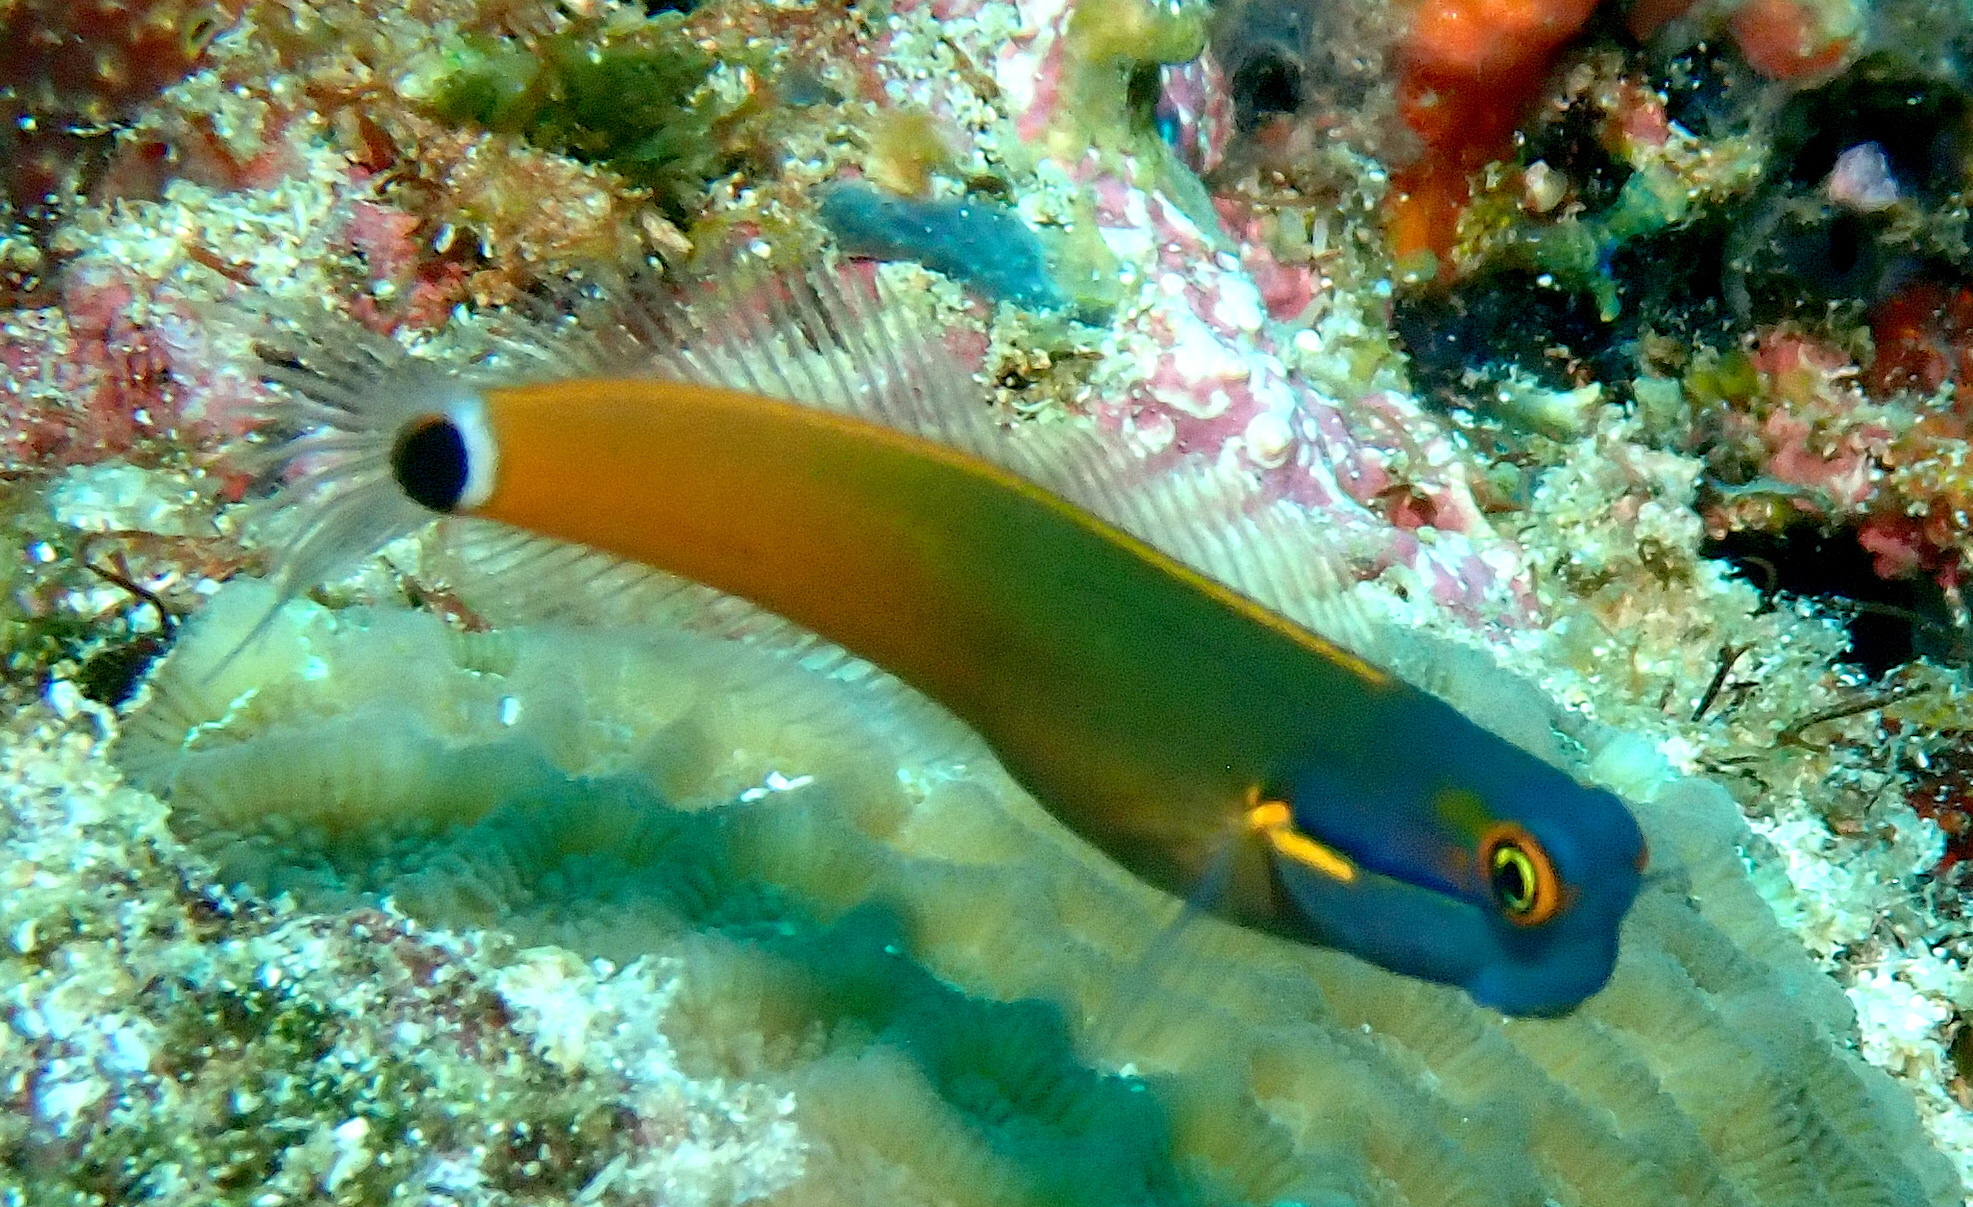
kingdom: Animalia
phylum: Chordata
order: Perciformes
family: Blenniidae
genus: Ecsenius
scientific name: Ecsenius stigmatura
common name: Tail-spot combtooth-blenny
